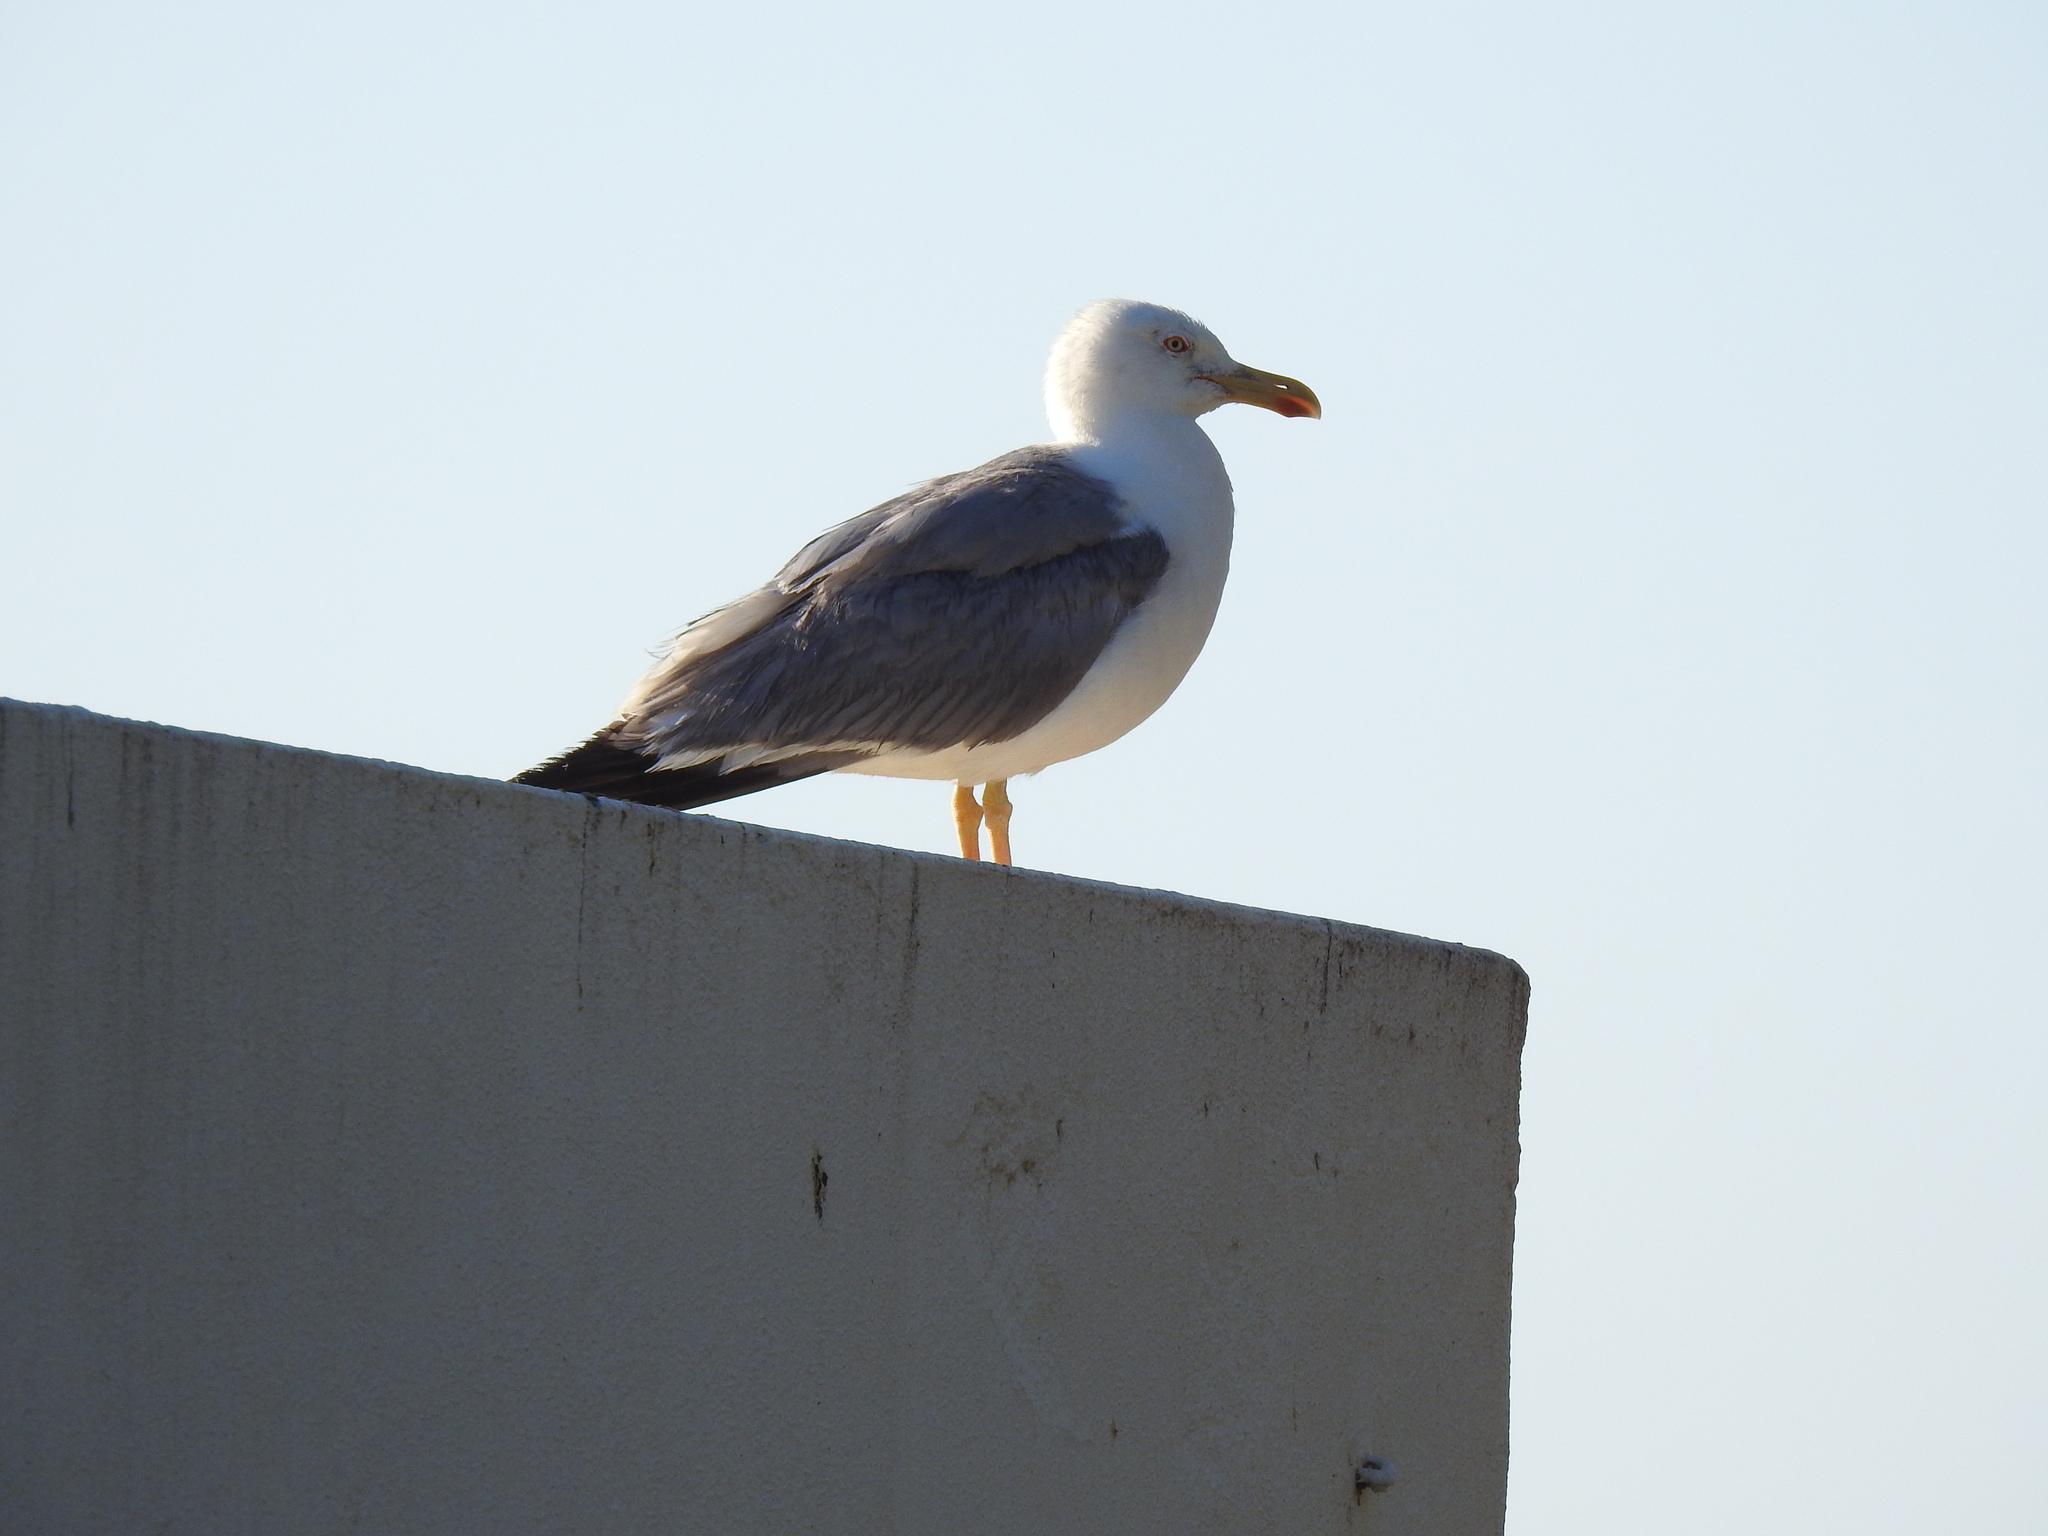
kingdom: Animalia
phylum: Chordata
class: Aves
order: Charadriiformes
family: Laridae
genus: Larus
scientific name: Larus michahellis
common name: Yellow-legged gull
